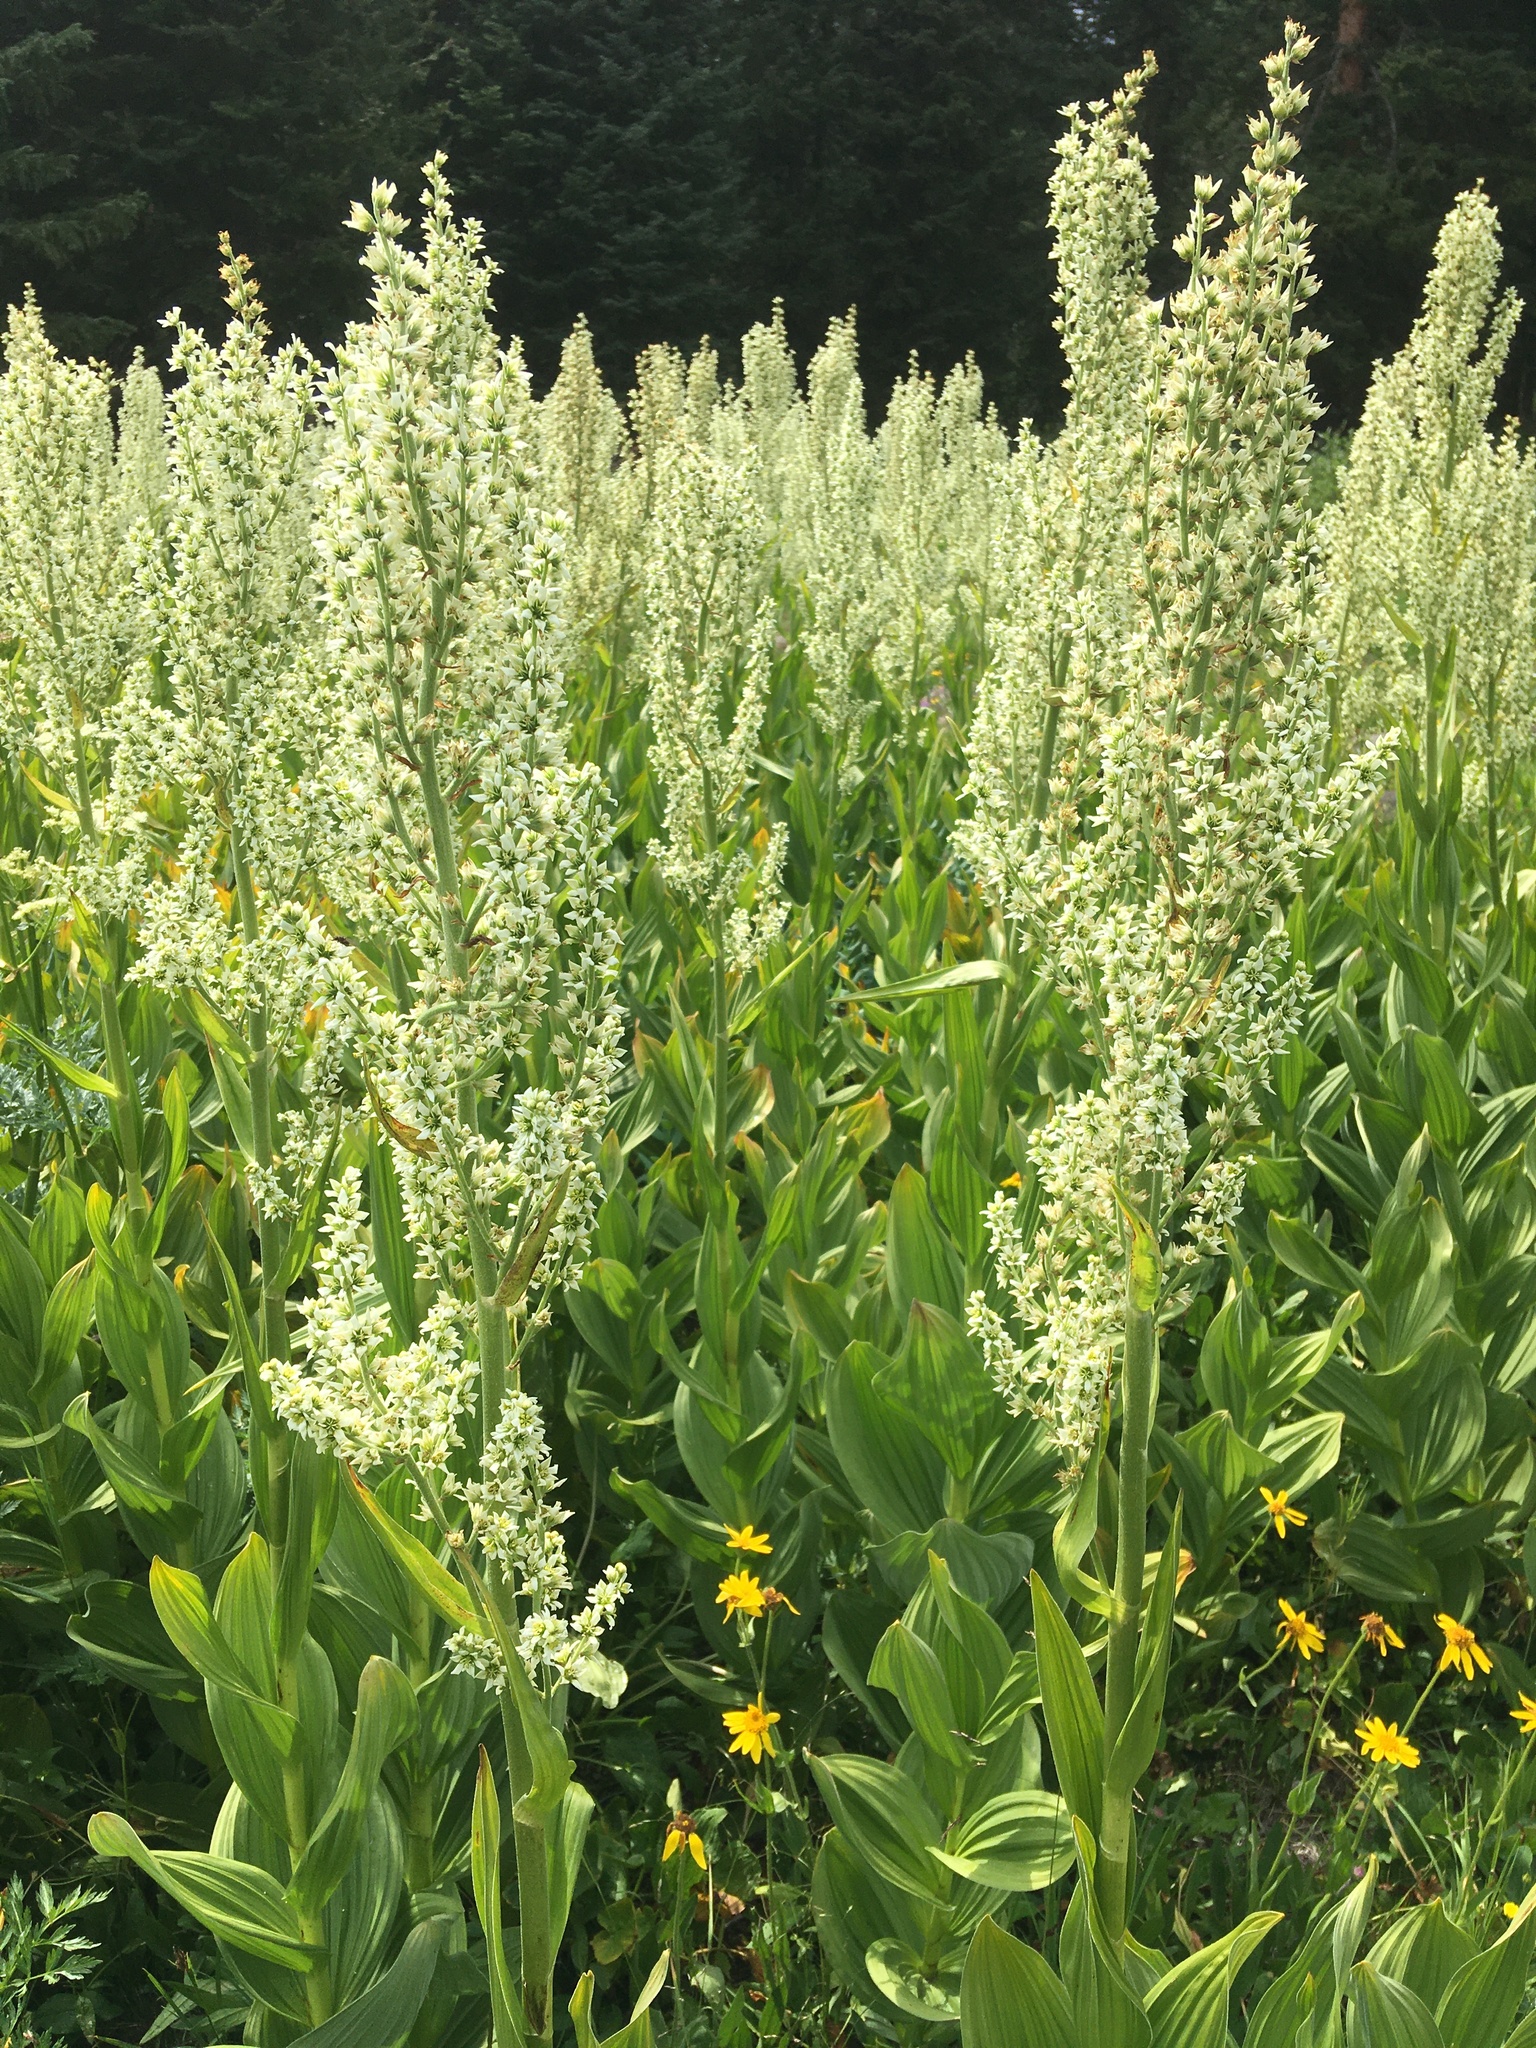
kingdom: Plantae
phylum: Tracheophyta
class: Liliopsida
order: Liliales
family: Melanthiaceae
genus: Veratrum
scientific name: Veratrum californicum
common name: California veratrum
